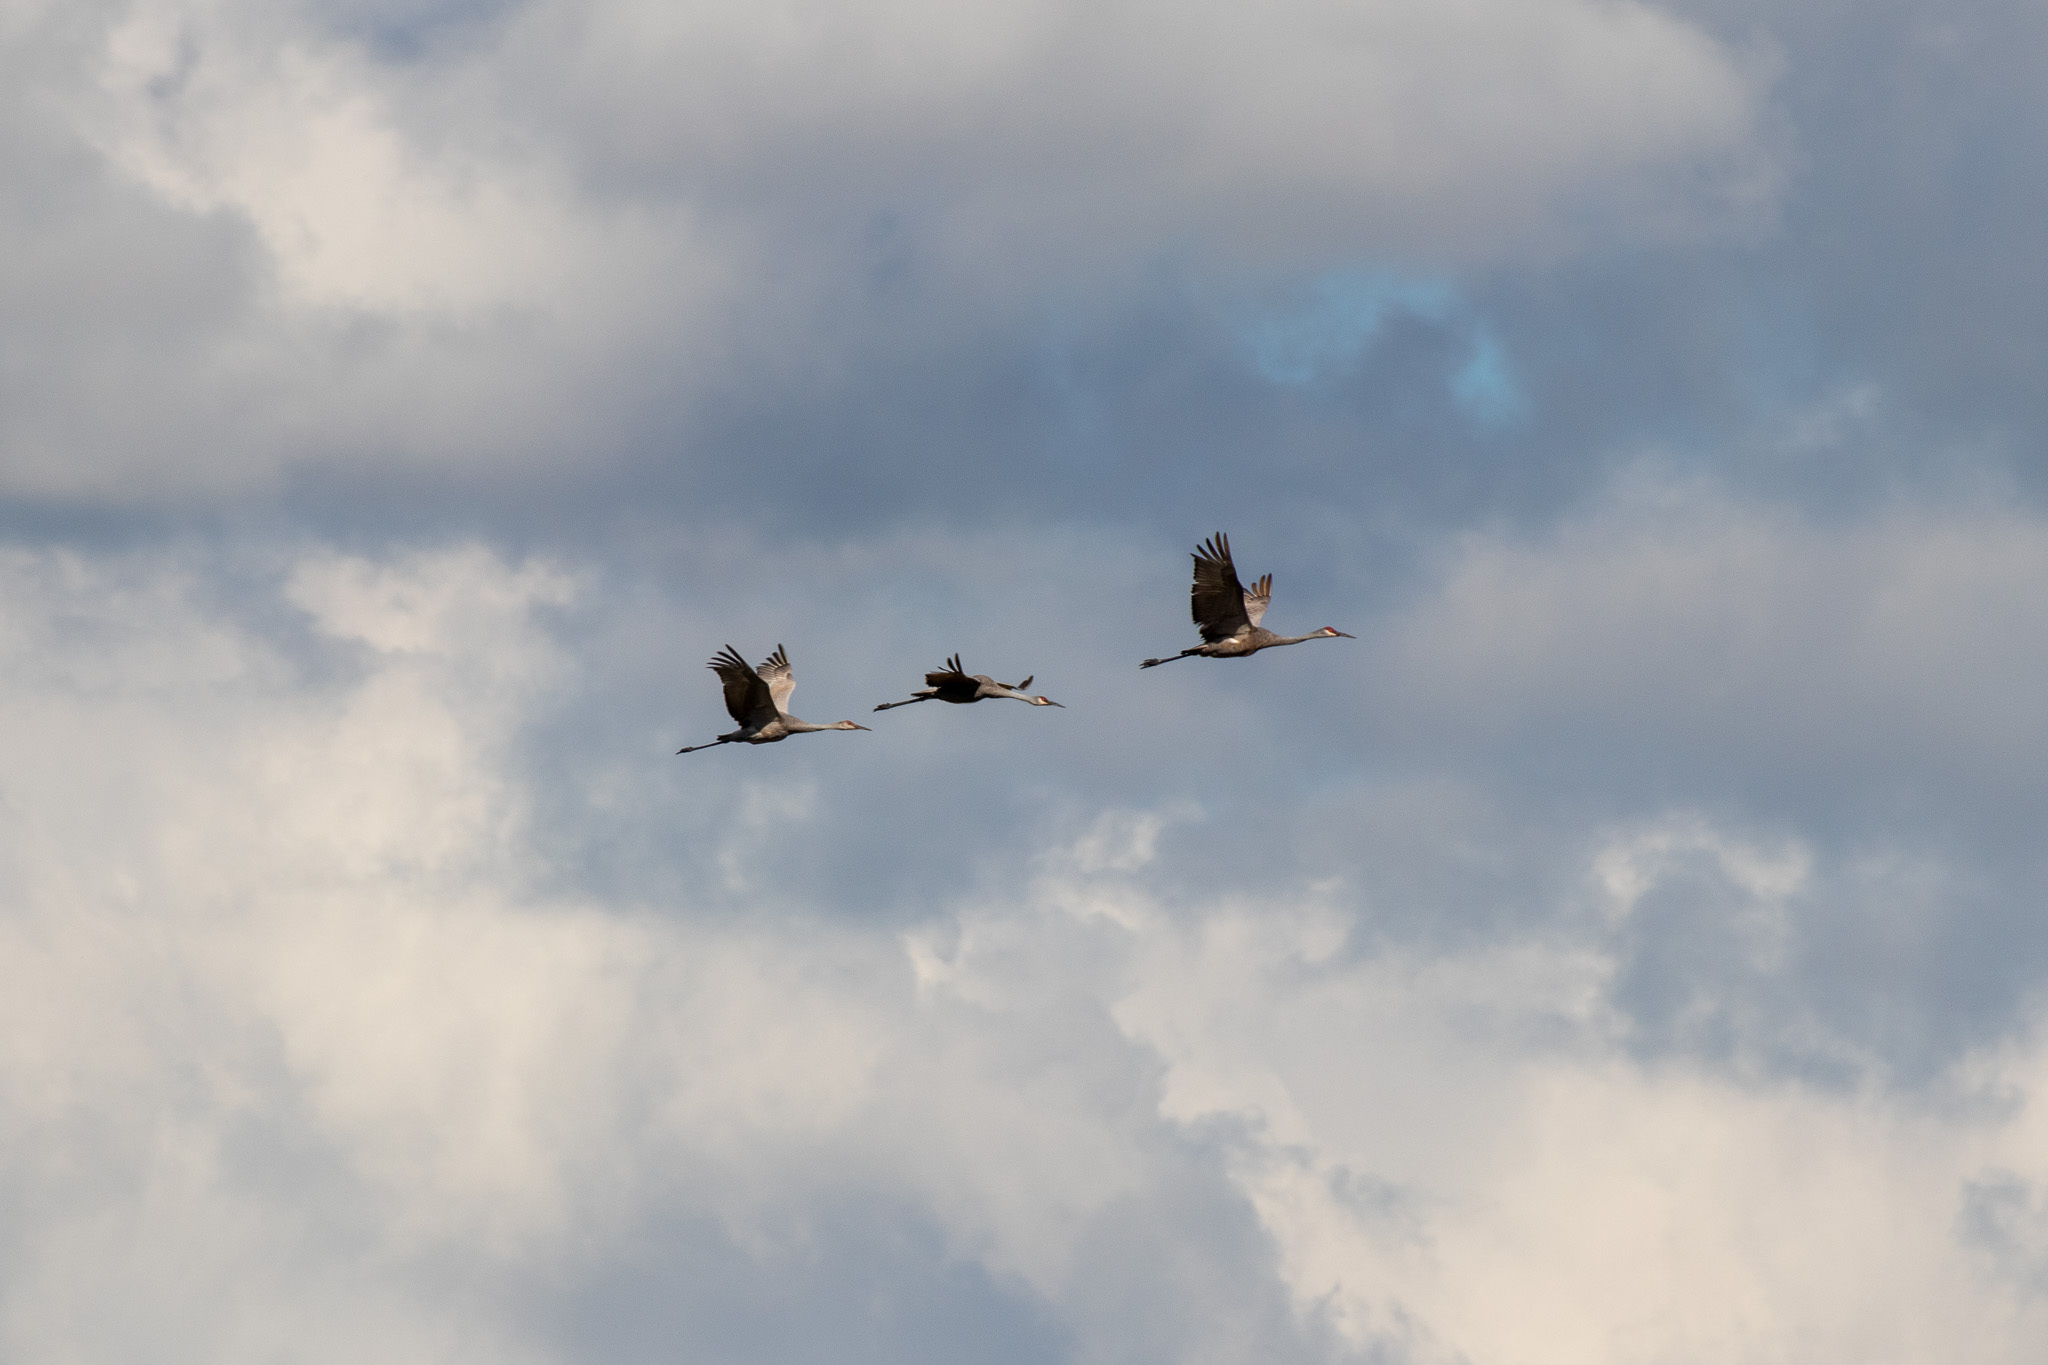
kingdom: Animalia
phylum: Chordata
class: Aves
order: Gruiformes
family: Gruidae
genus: Grus
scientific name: Grus canadensis
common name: Sandhill crane
